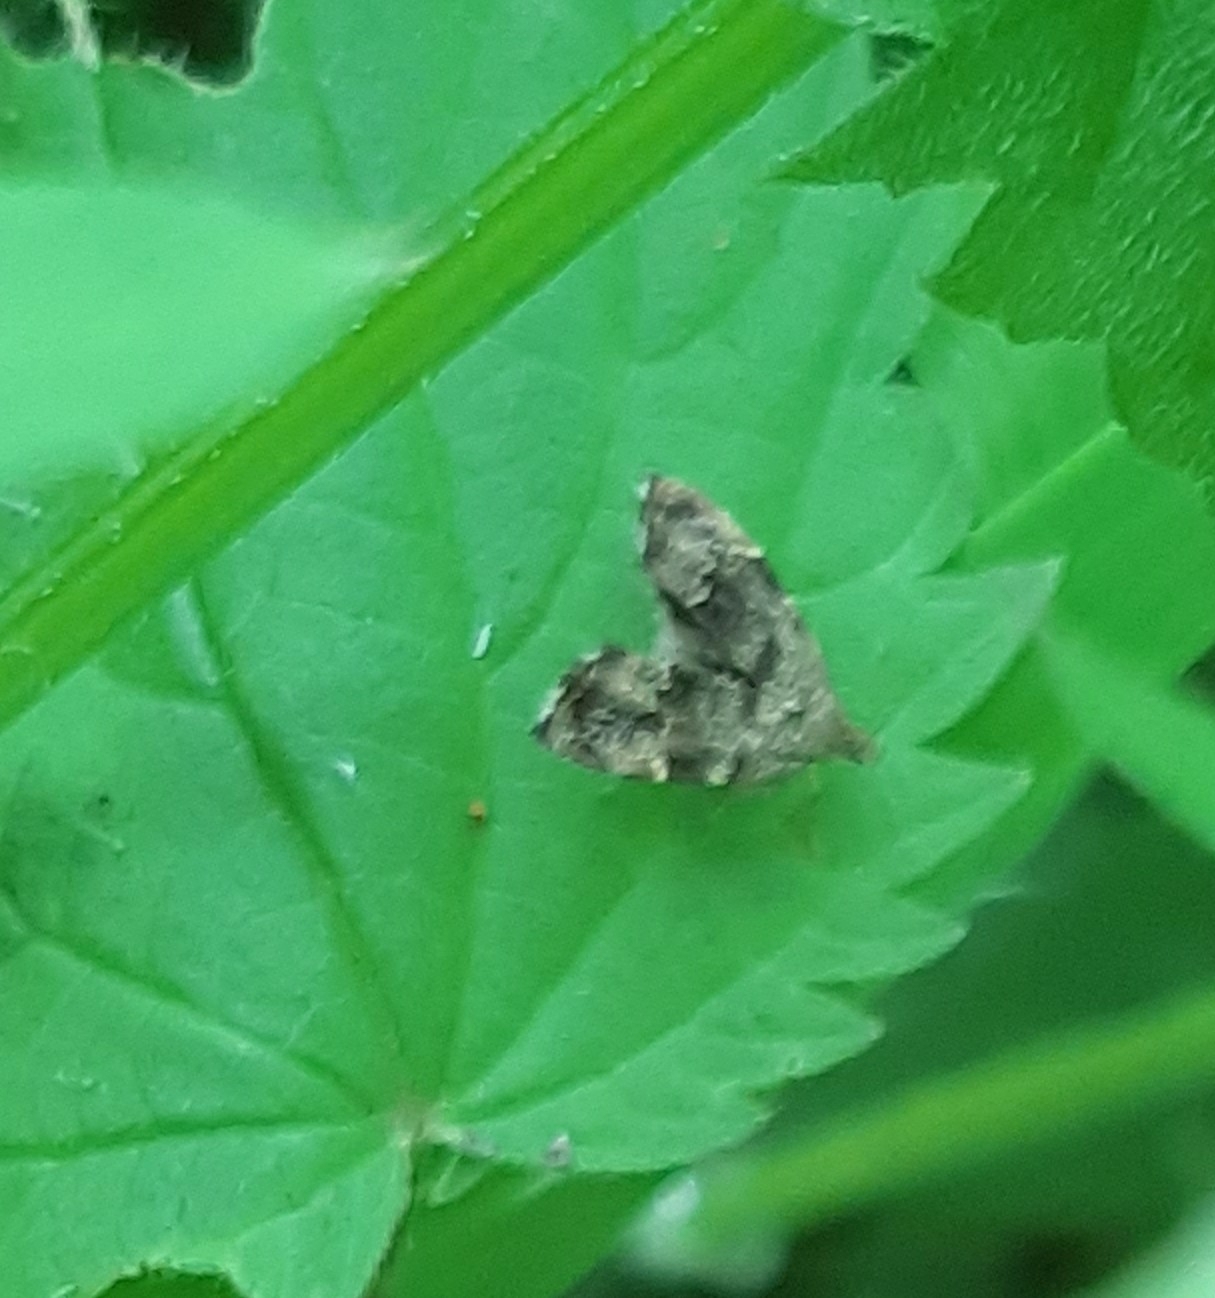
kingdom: Animalia
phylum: Arthropoda
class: Insecta
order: Lepidoptera
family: Choreutidae
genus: Anthophila
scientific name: Anthophila fabriciana
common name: Nettle-tap
